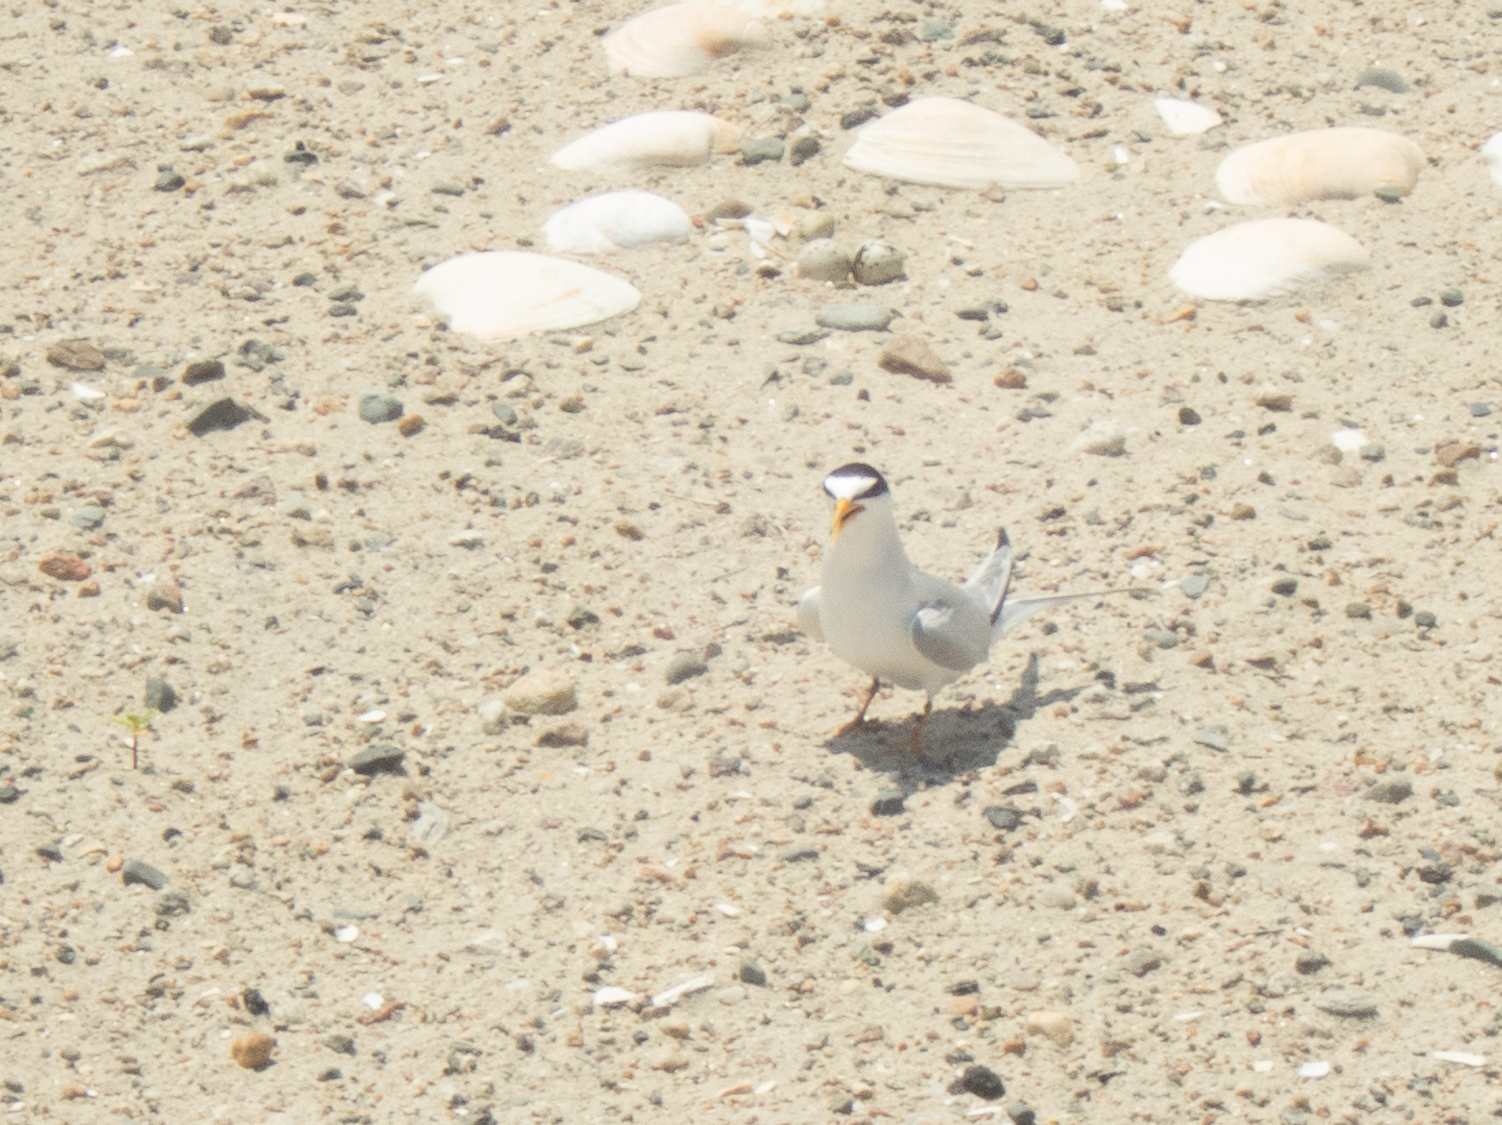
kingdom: Animalia
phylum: Chordata
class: Aves
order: Charadriiformes
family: Laridae
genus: Sternula
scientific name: Sternula antillarum
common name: Least tern
